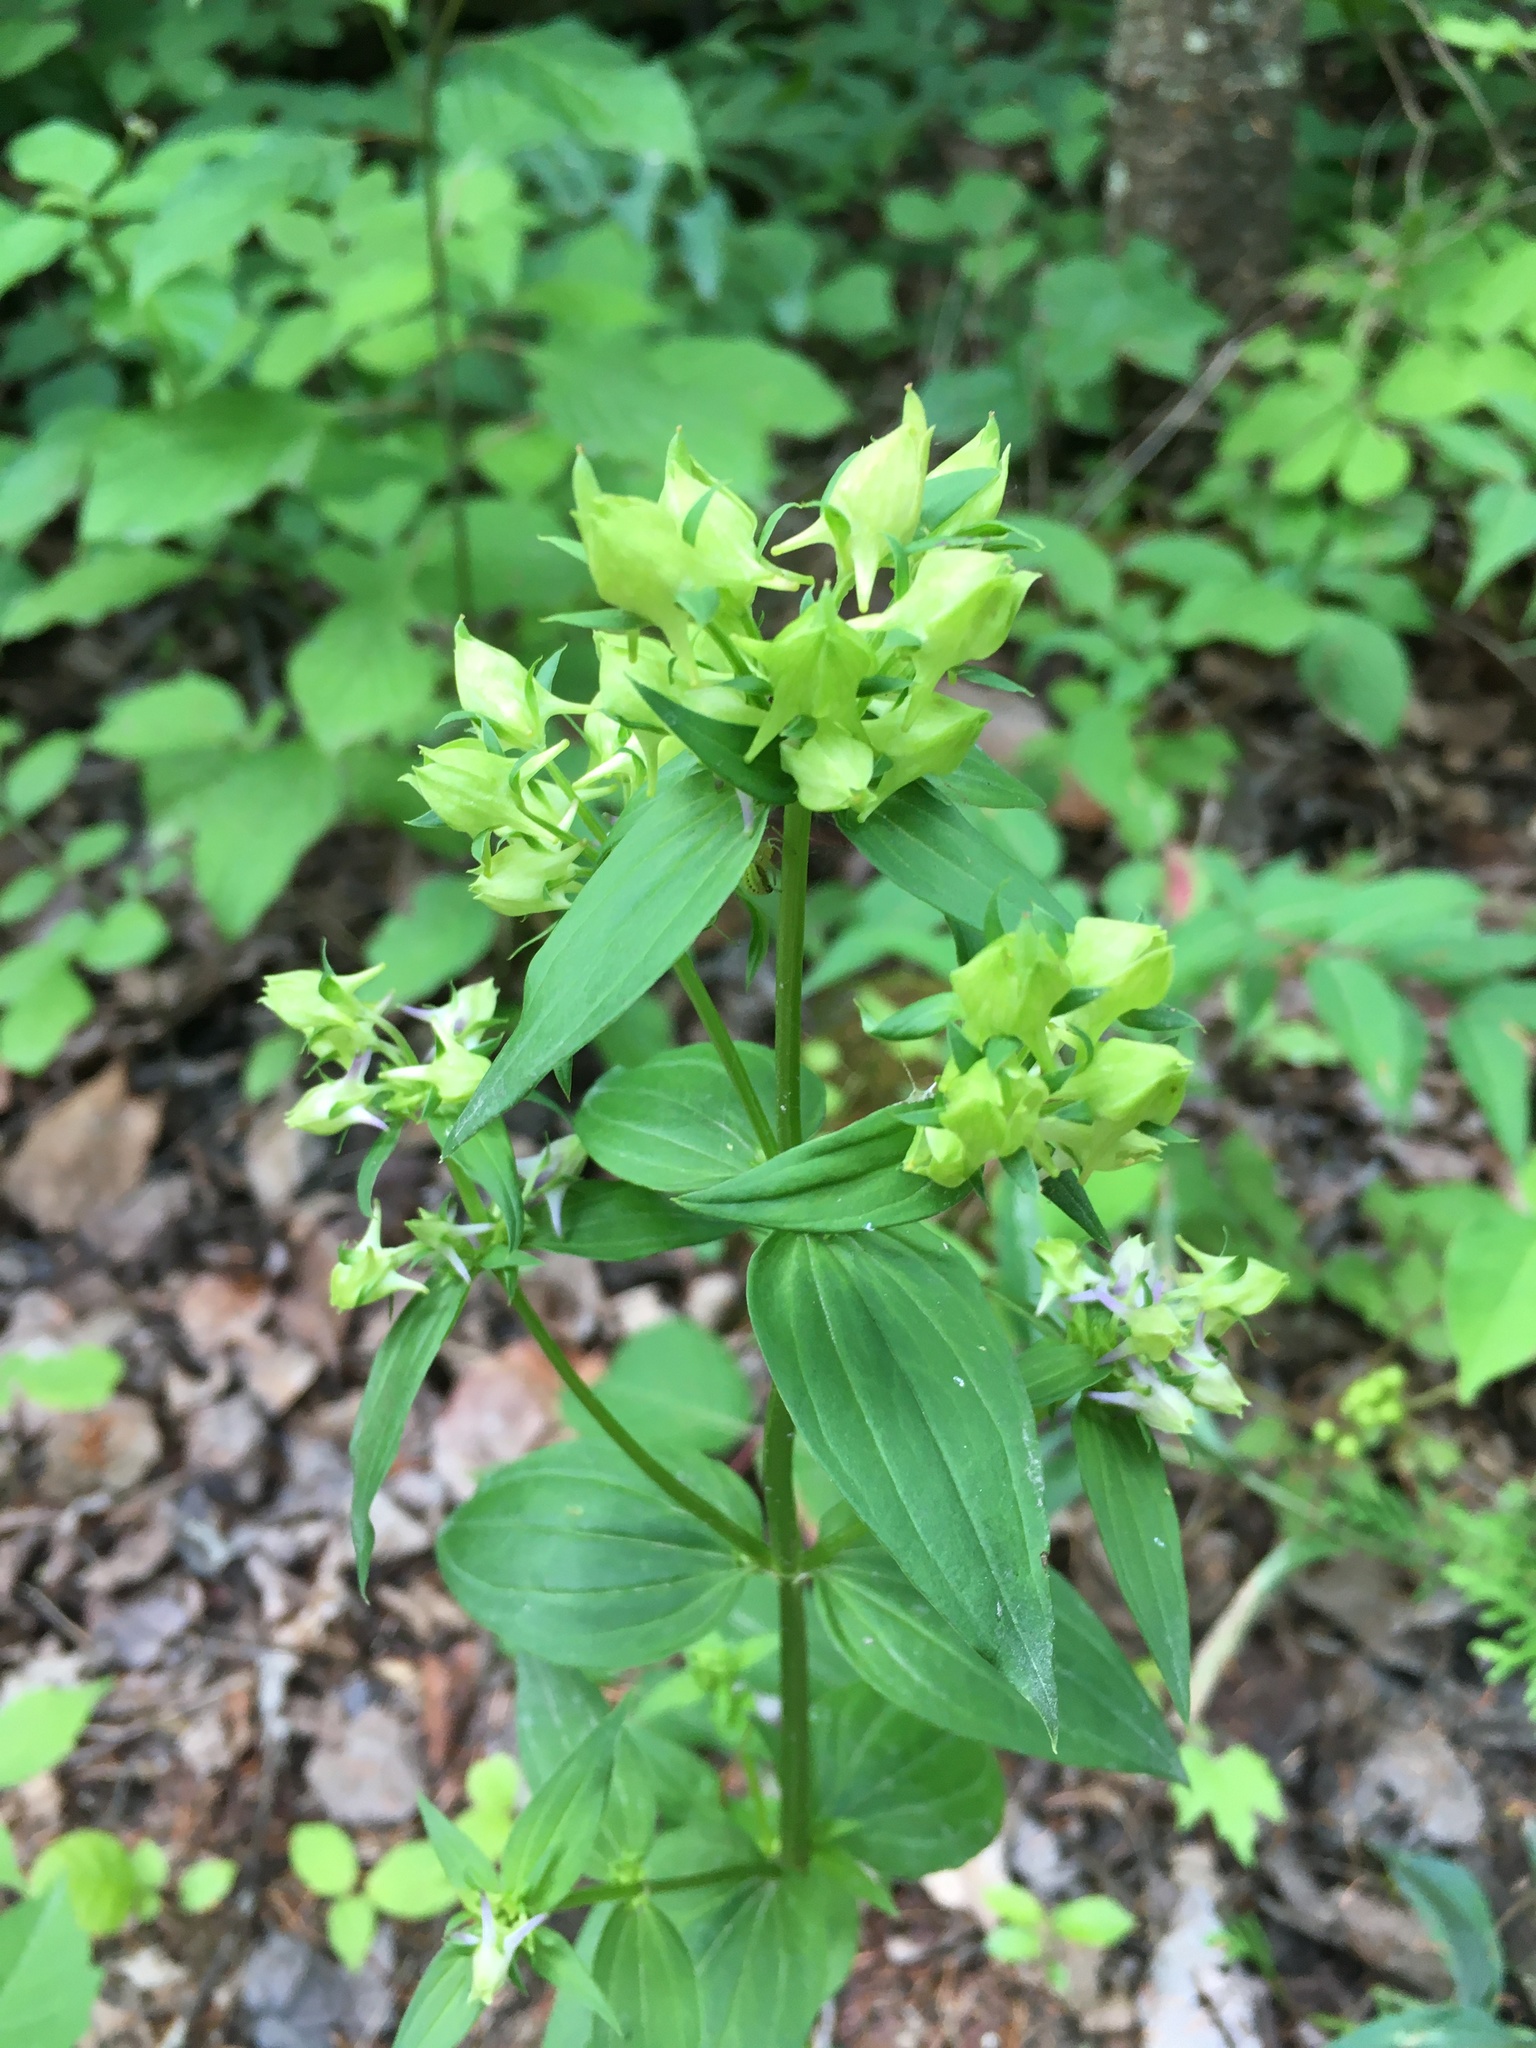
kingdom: Plantae
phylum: Tracheophyta
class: Magnoliopsida
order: Gentianales
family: Gentianaceae
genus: Halenia
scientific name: Halenia deflexa
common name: American spurred gentian
